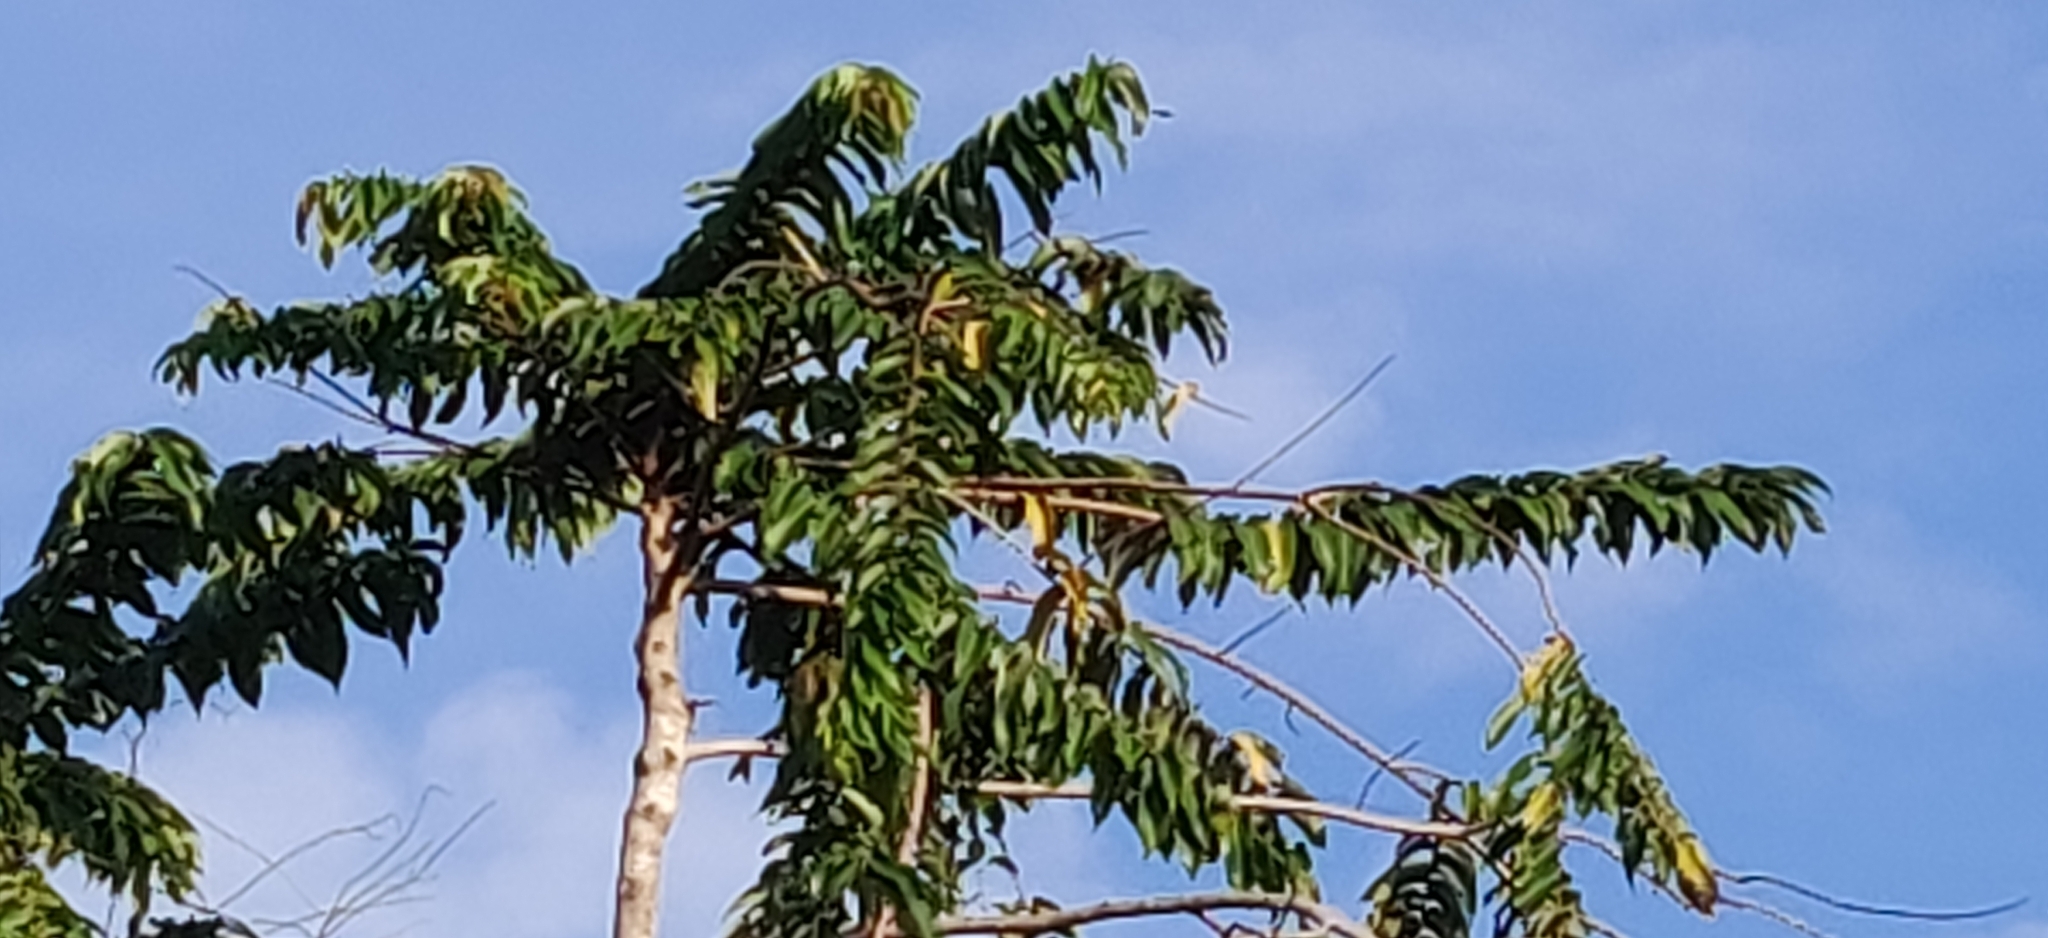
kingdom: Plantae
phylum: Tracheophyta
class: Magnoliopsida
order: Myrtales
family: Lythraceae
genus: Duabanga
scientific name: Duabanga grandiflora
